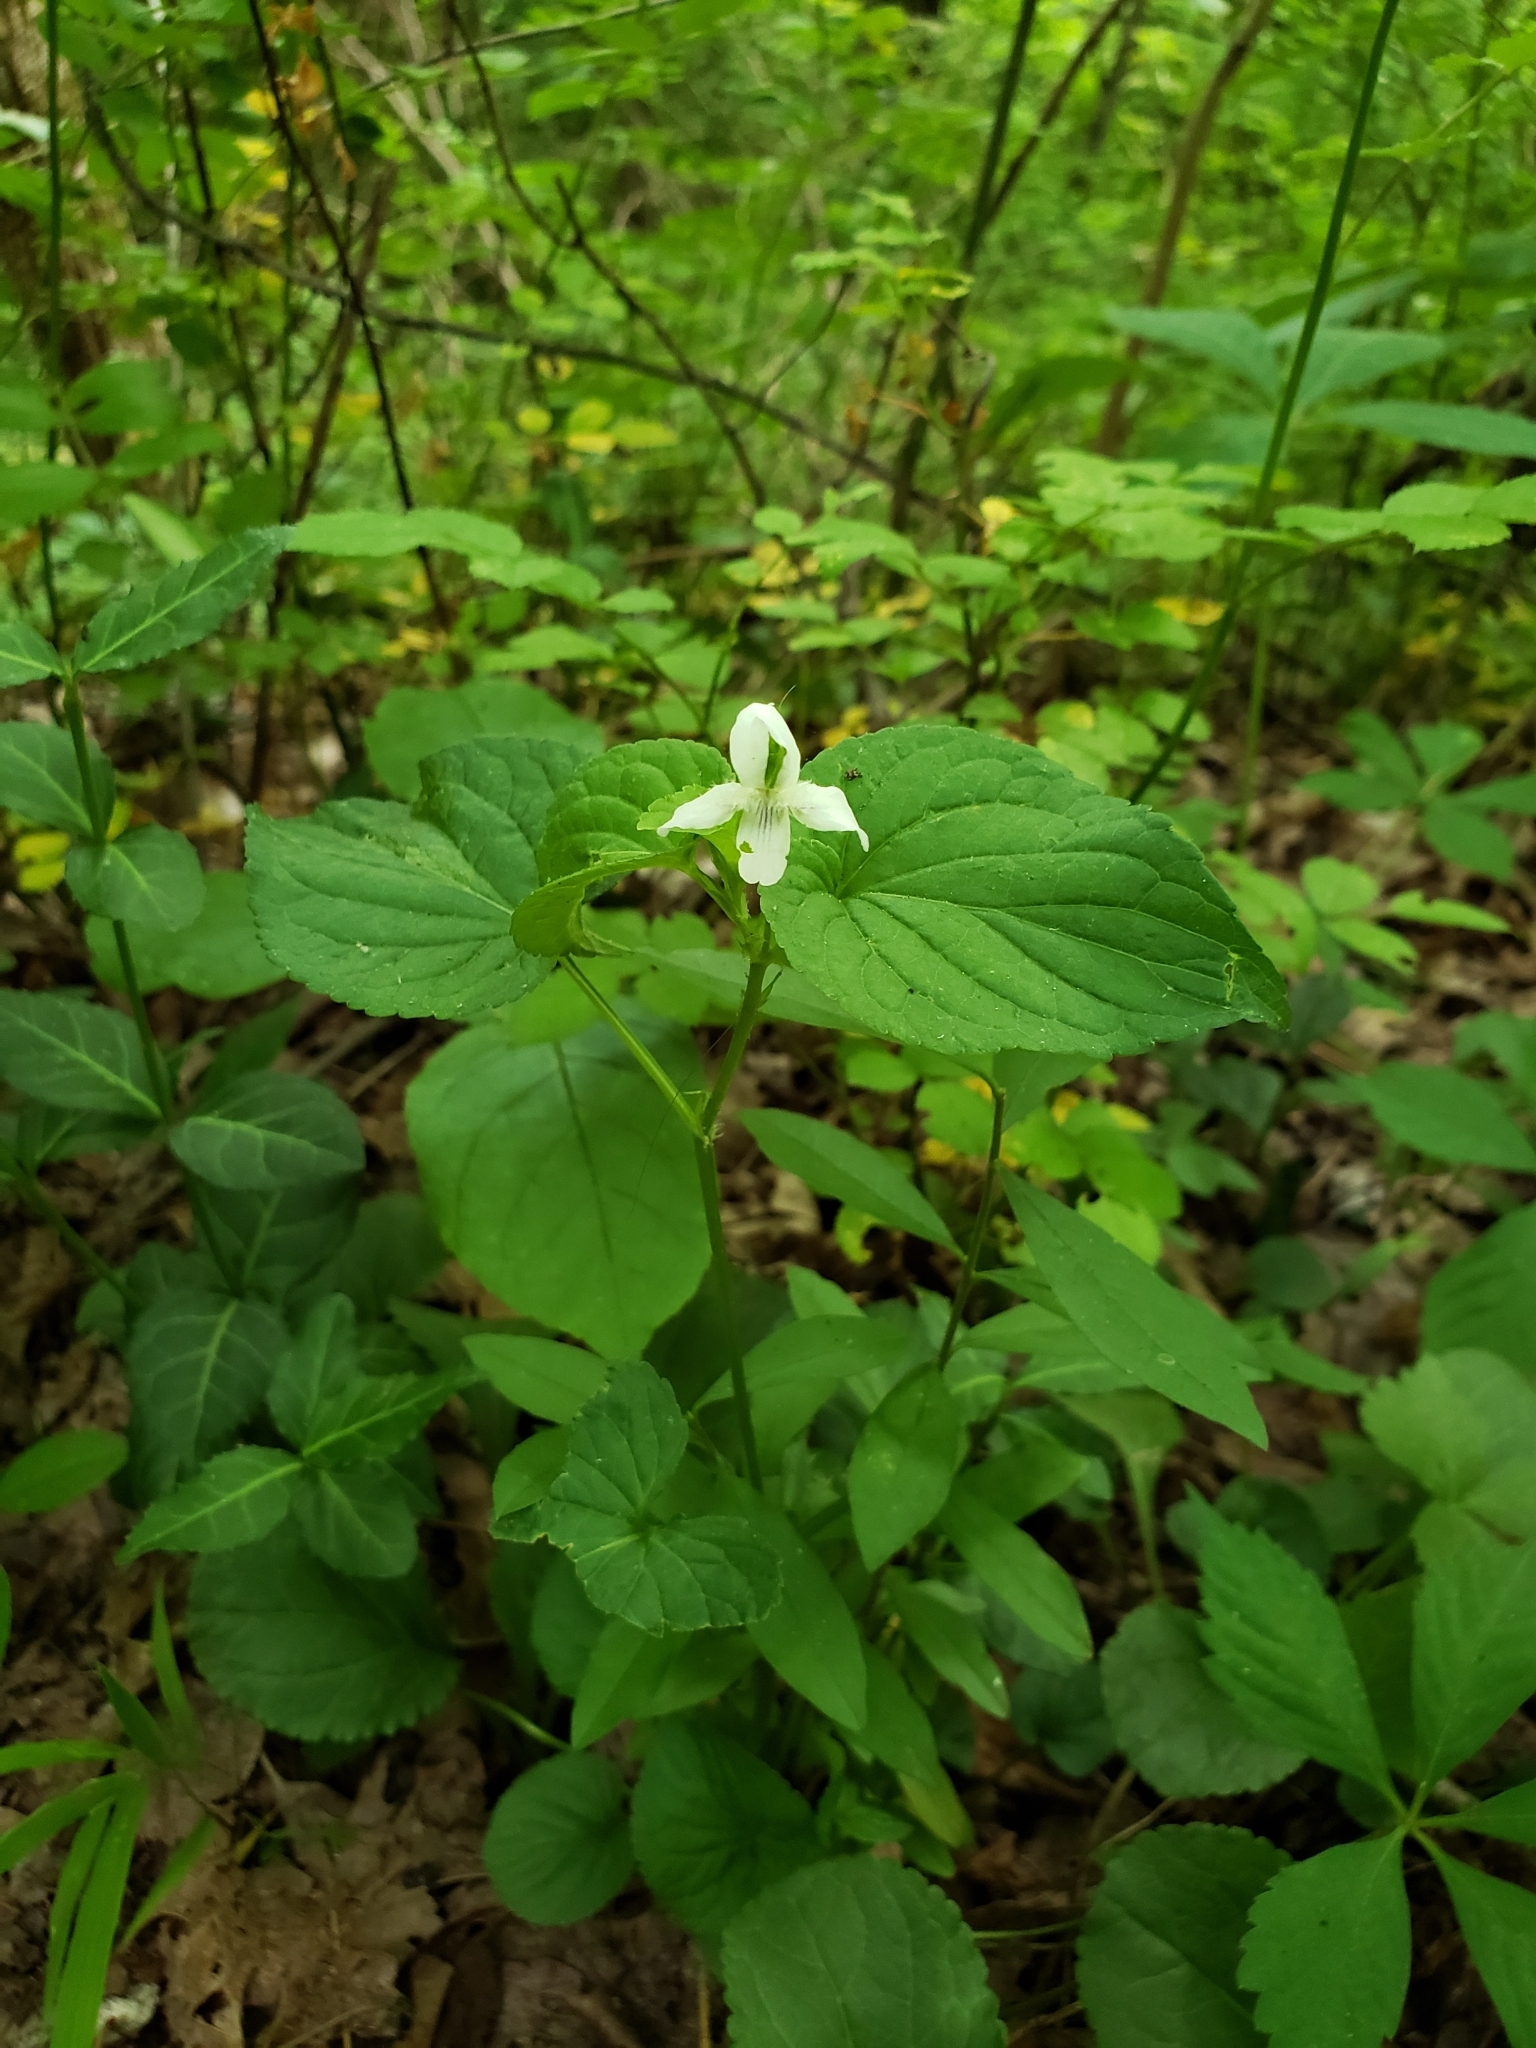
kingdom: Plantae
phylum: Tracheophyta
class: Magnoliopsida
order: Malpighiales
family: Violaceae
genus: Viola
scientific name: Viola striata
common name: Cream violet
